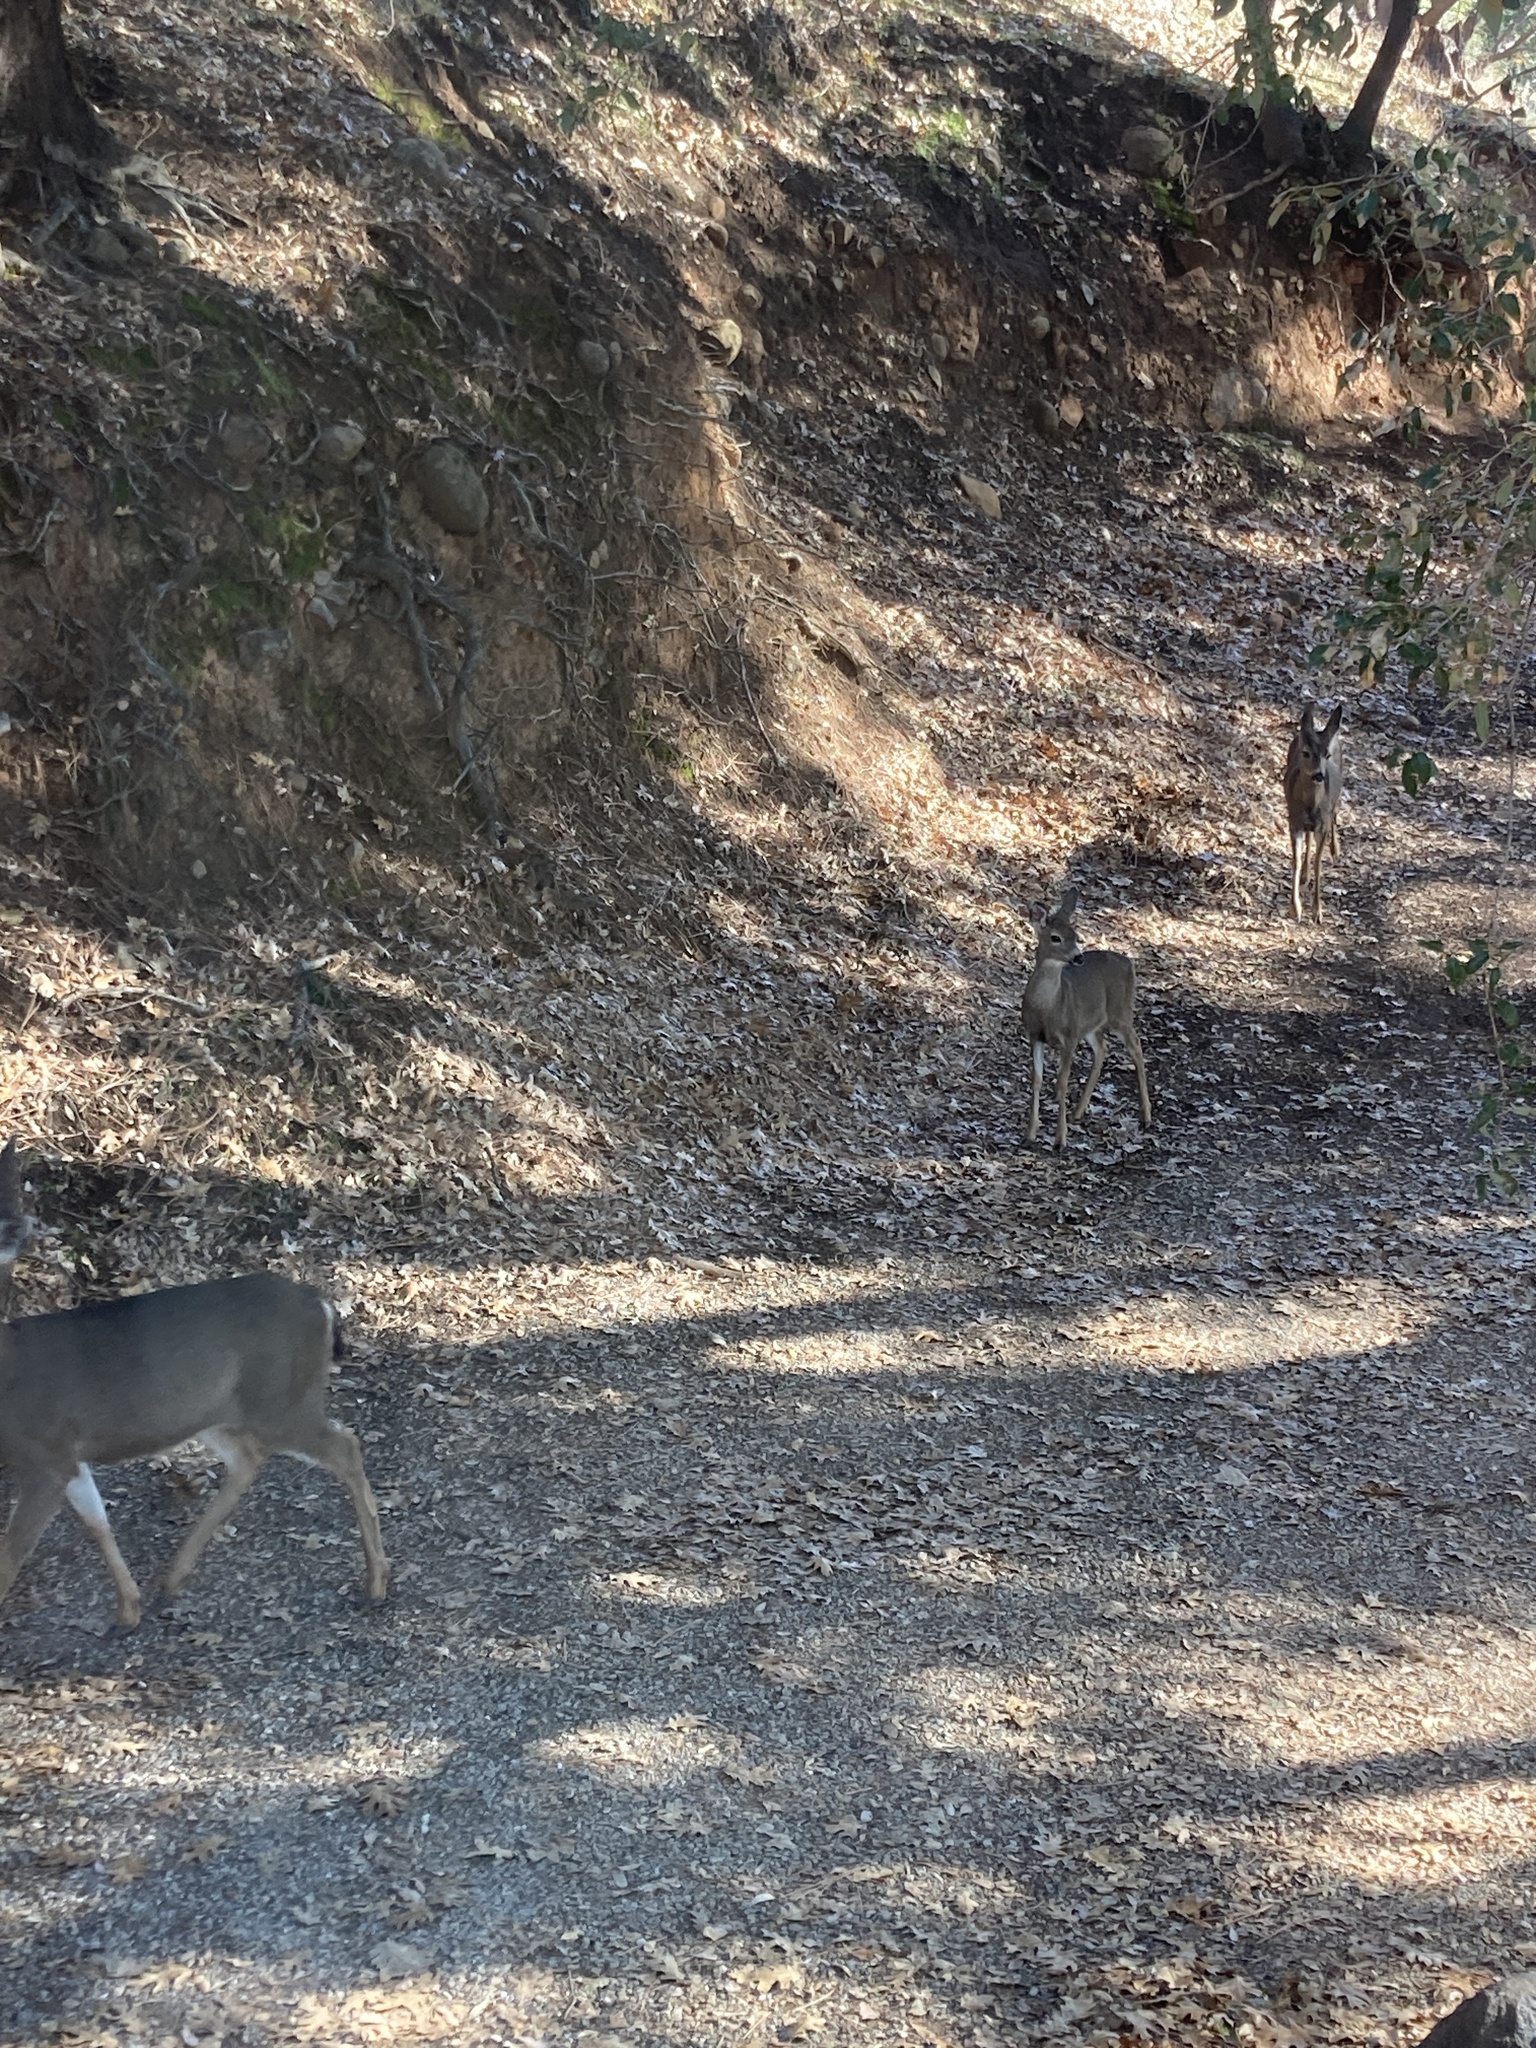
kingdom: Animalia
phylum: Chordata
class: Mammalia
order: Artiodactyla
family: Cervidae
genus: Odocoileus
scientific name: Odocoileus hemionus
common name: Mule deer
